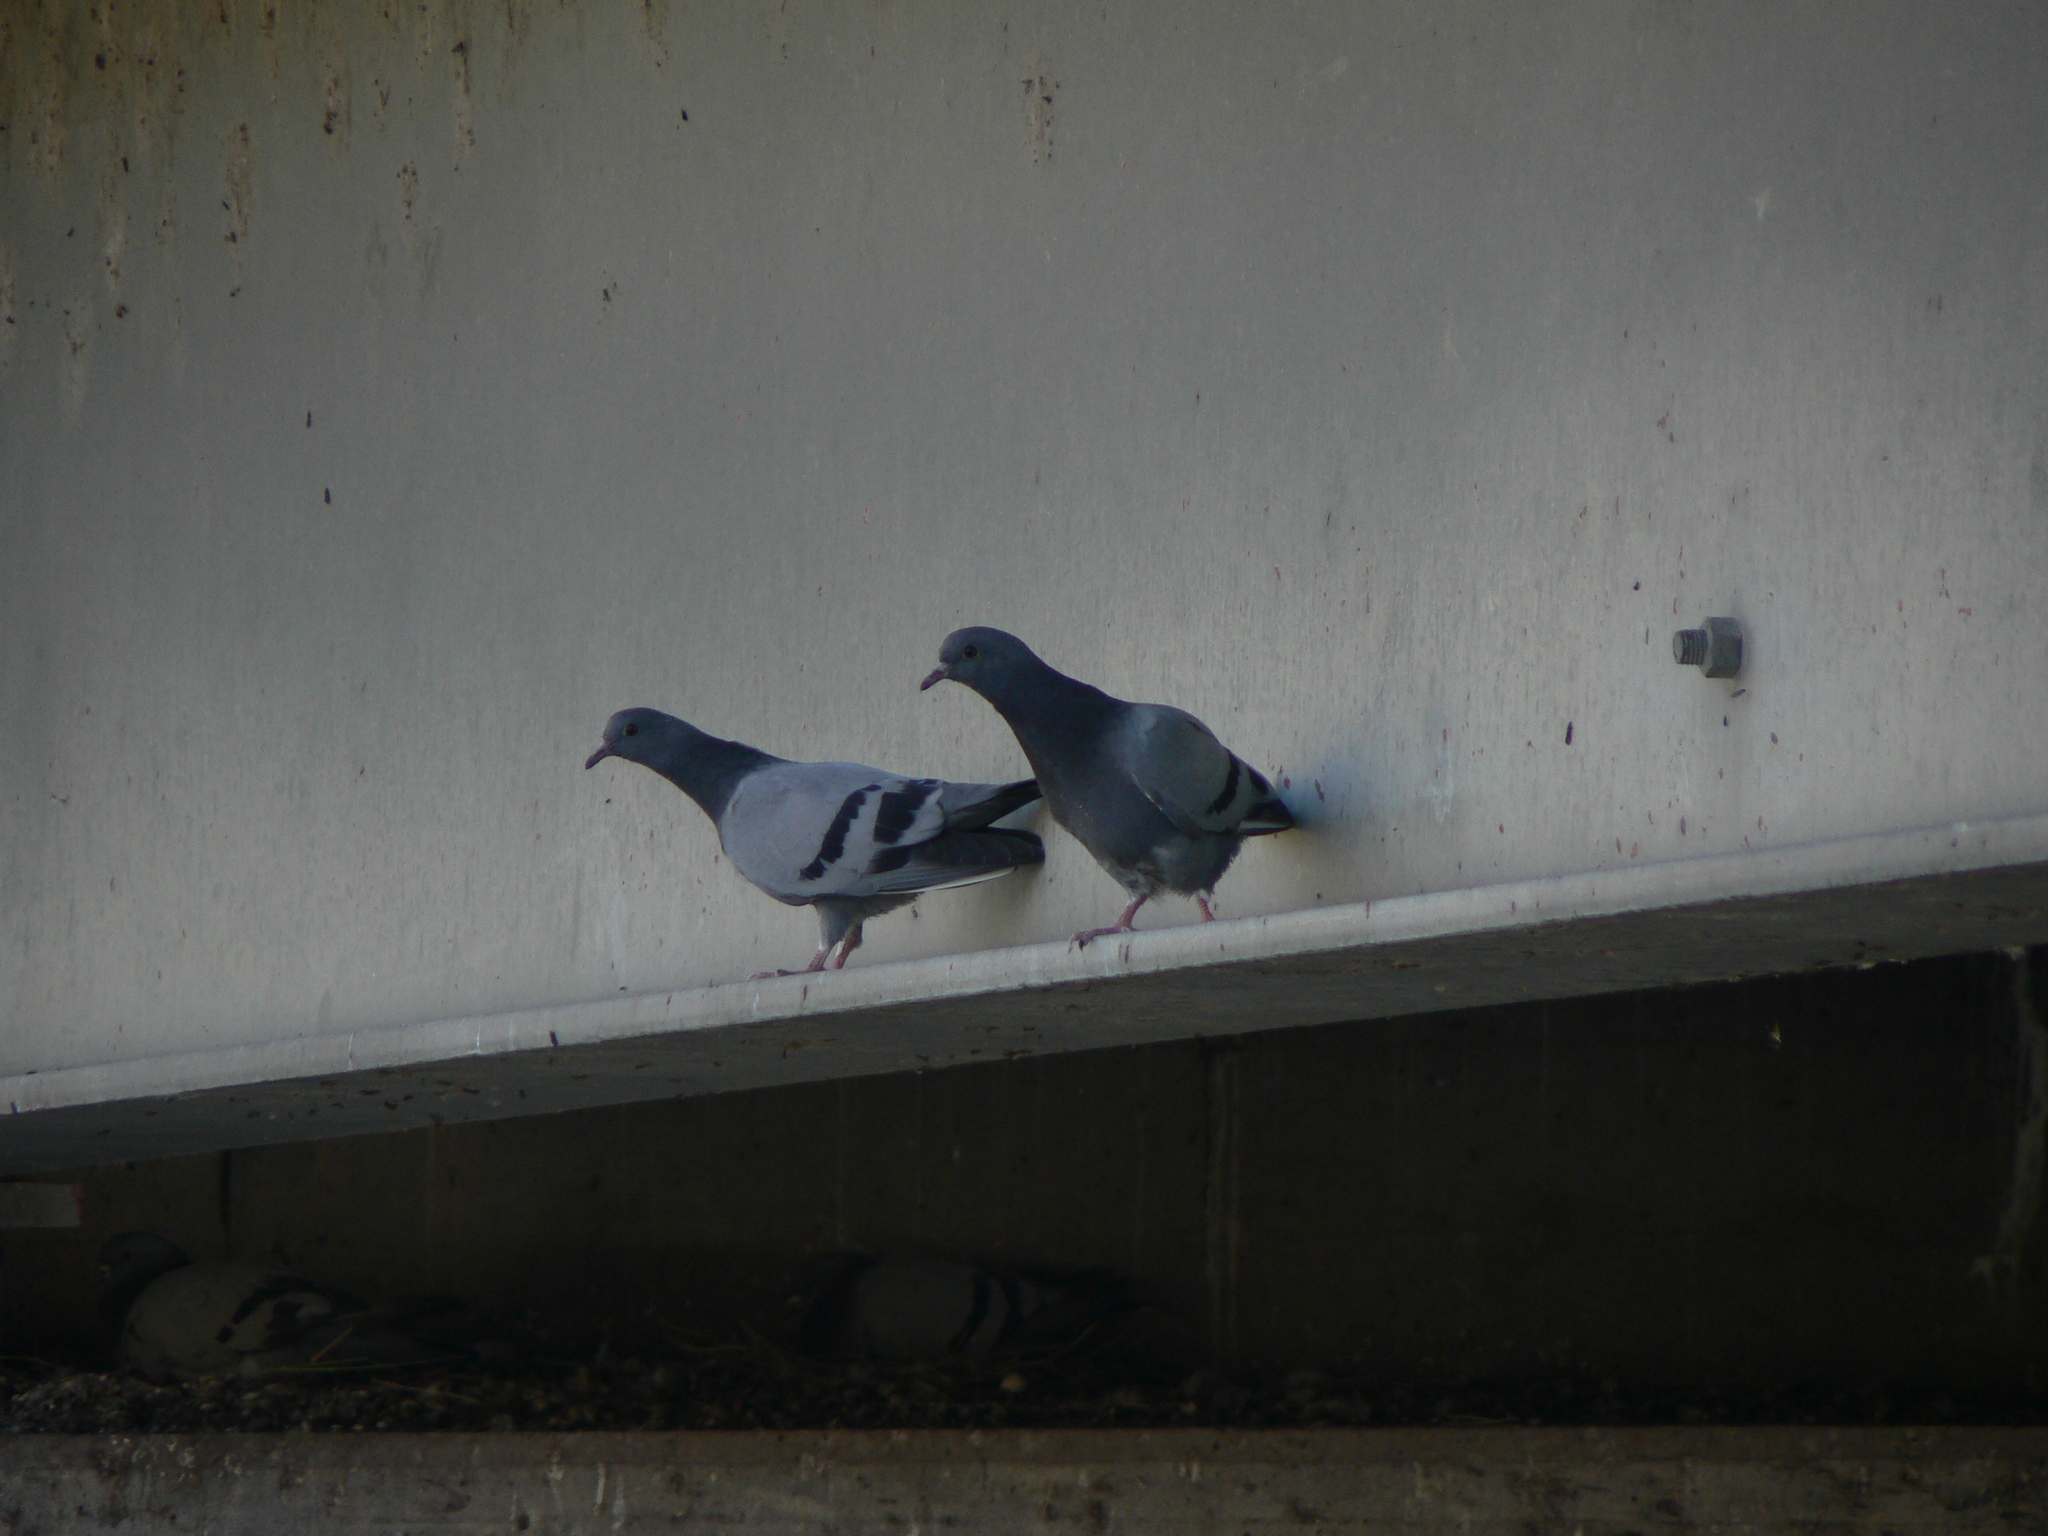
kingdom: Animalia
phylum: Chordata
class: Aves
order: Columbiformes
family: Columbidae
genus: Columba
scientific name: Columba livia
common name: Rock pigeon
